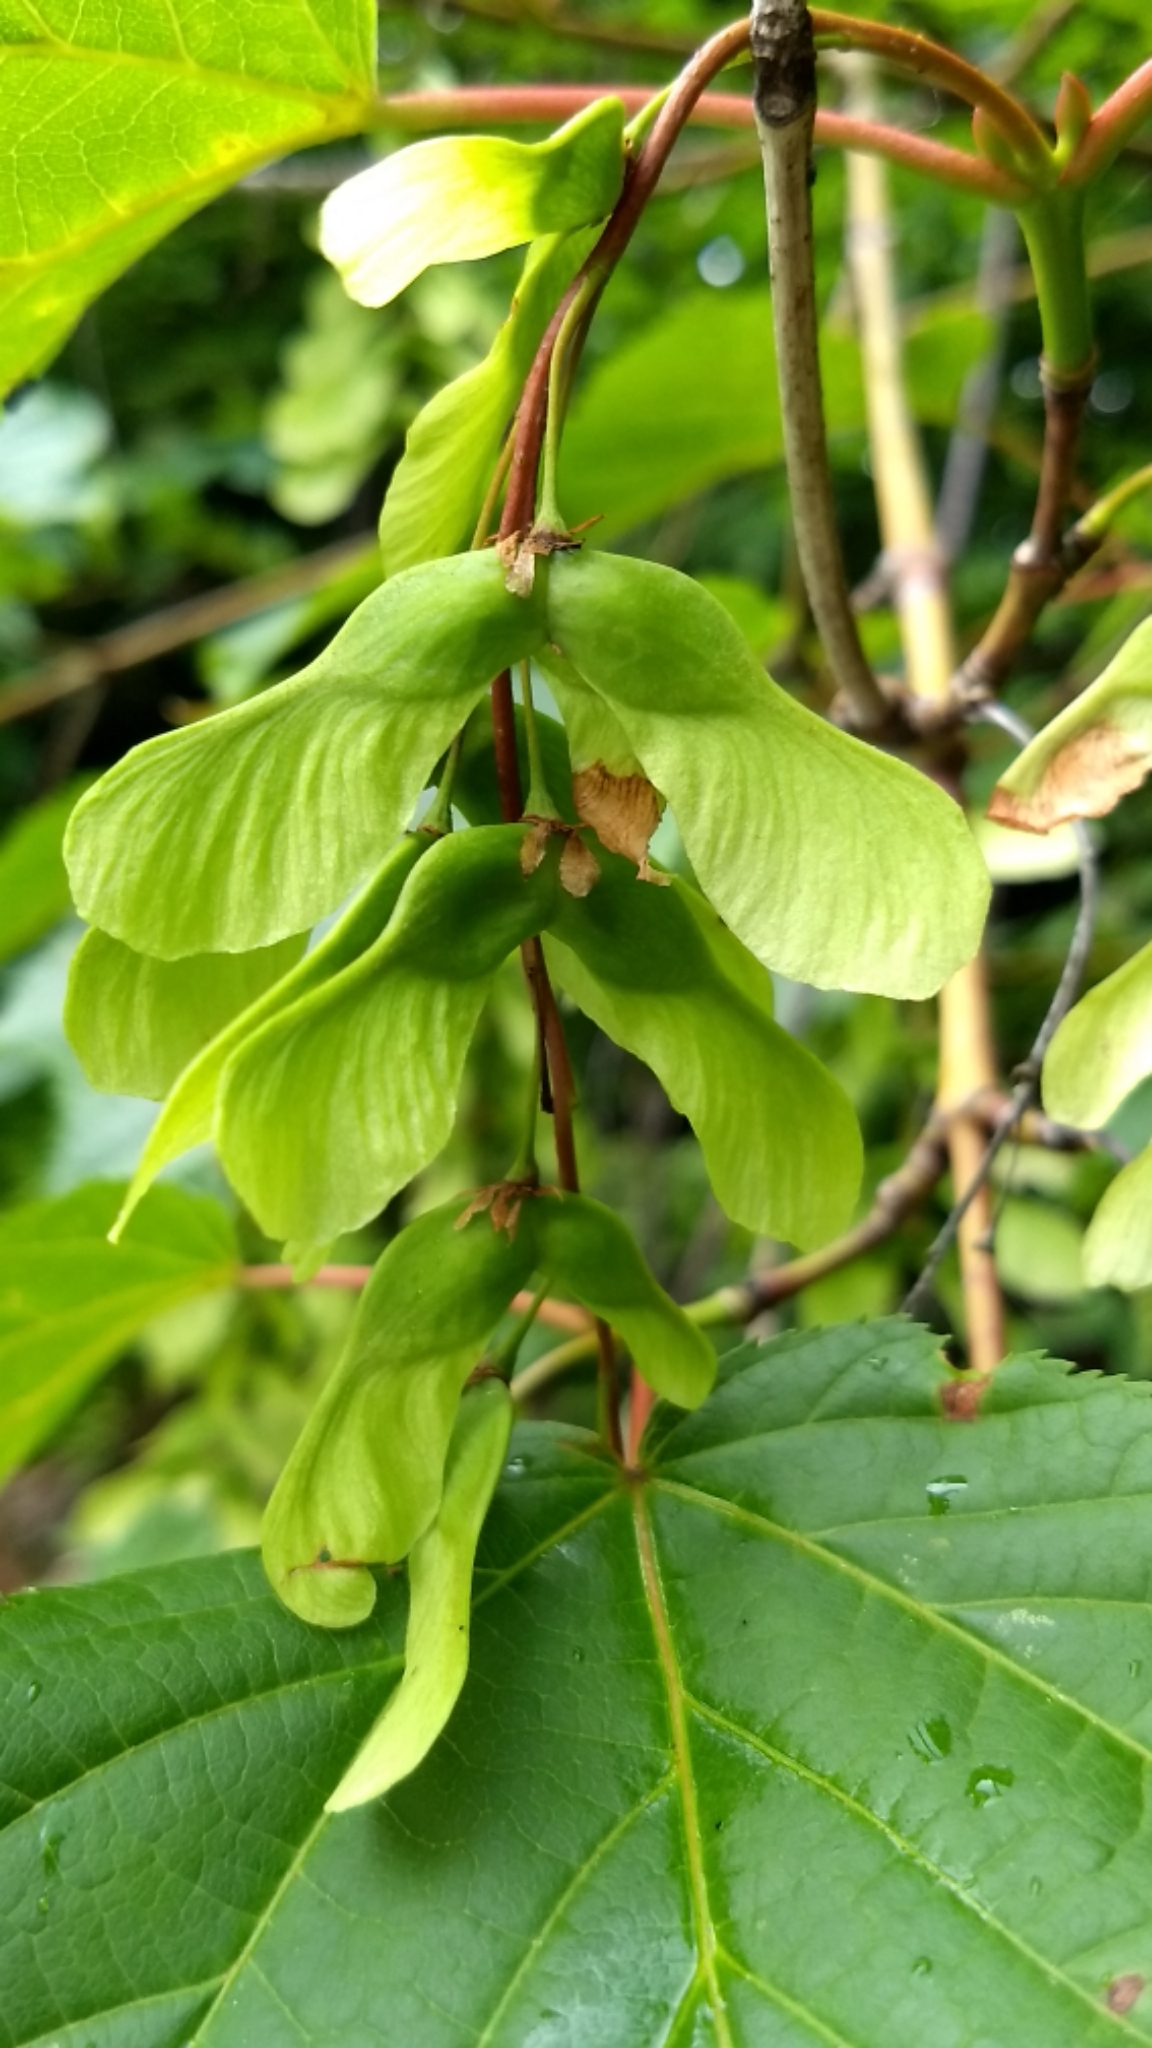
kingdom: Plantae
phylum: Tracheophyta
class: Magnoliopsida
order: Sapindales
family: Sapindaceae
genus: Acer
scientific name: Acer pensylvanicum
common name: Moosewood
